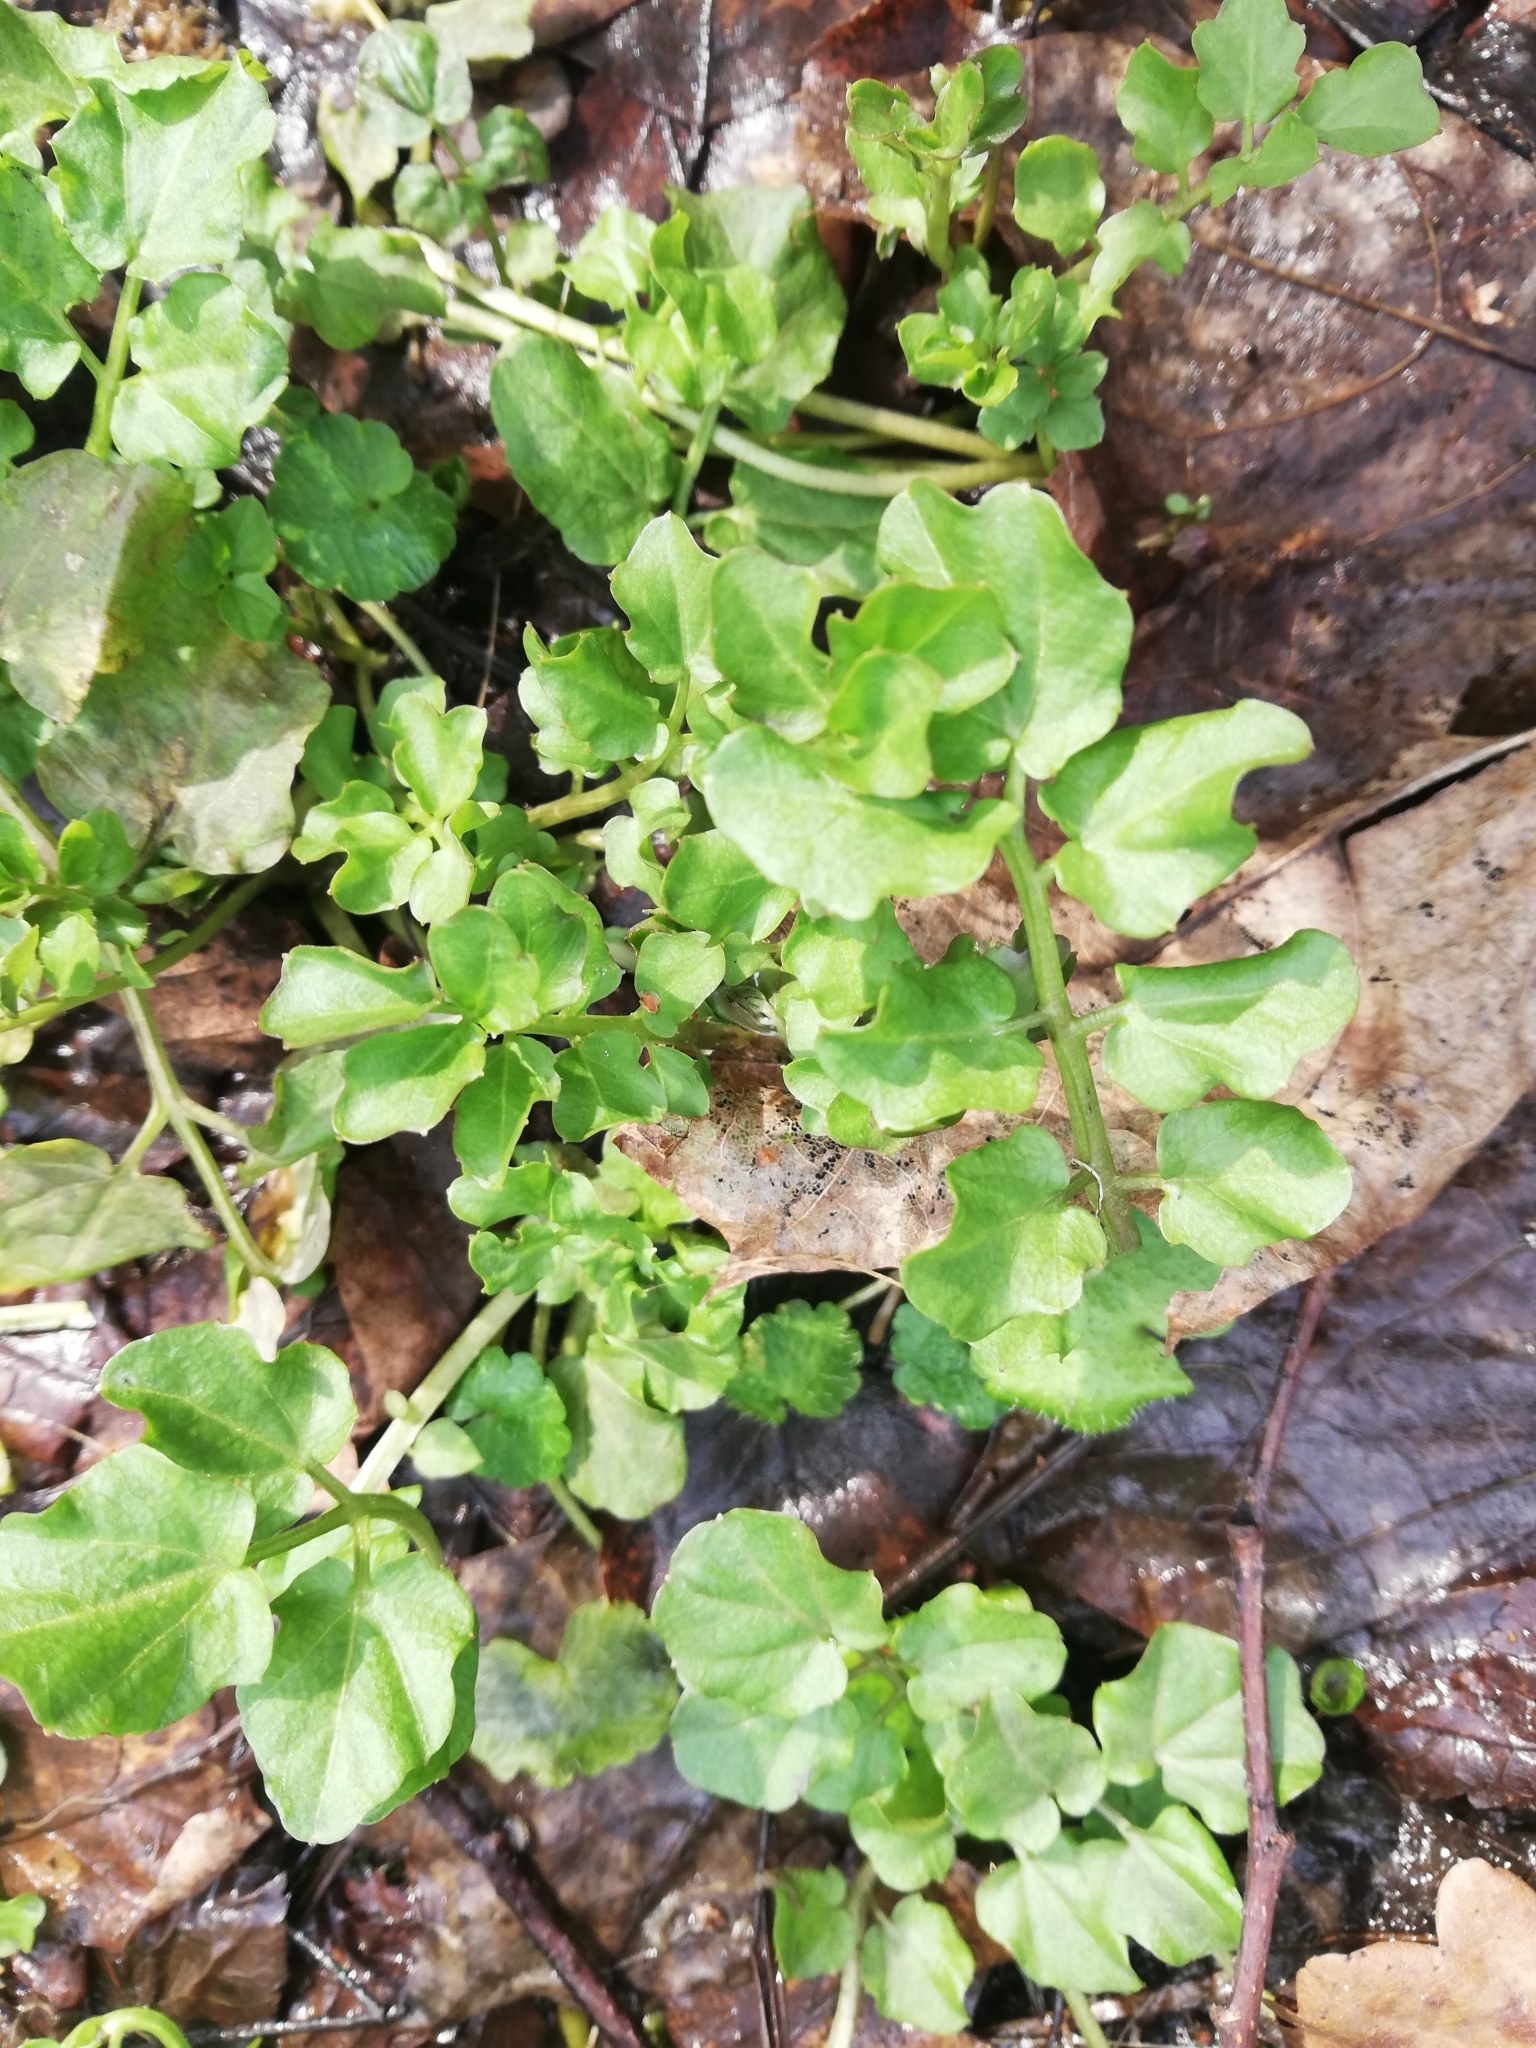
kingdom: Plantae
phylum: Tracheophyta
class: Magnoliopsida
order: Brassicales
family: Brassicaceae
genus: Cardamine
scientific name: Cardamine amara
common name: Large bitter-cress
